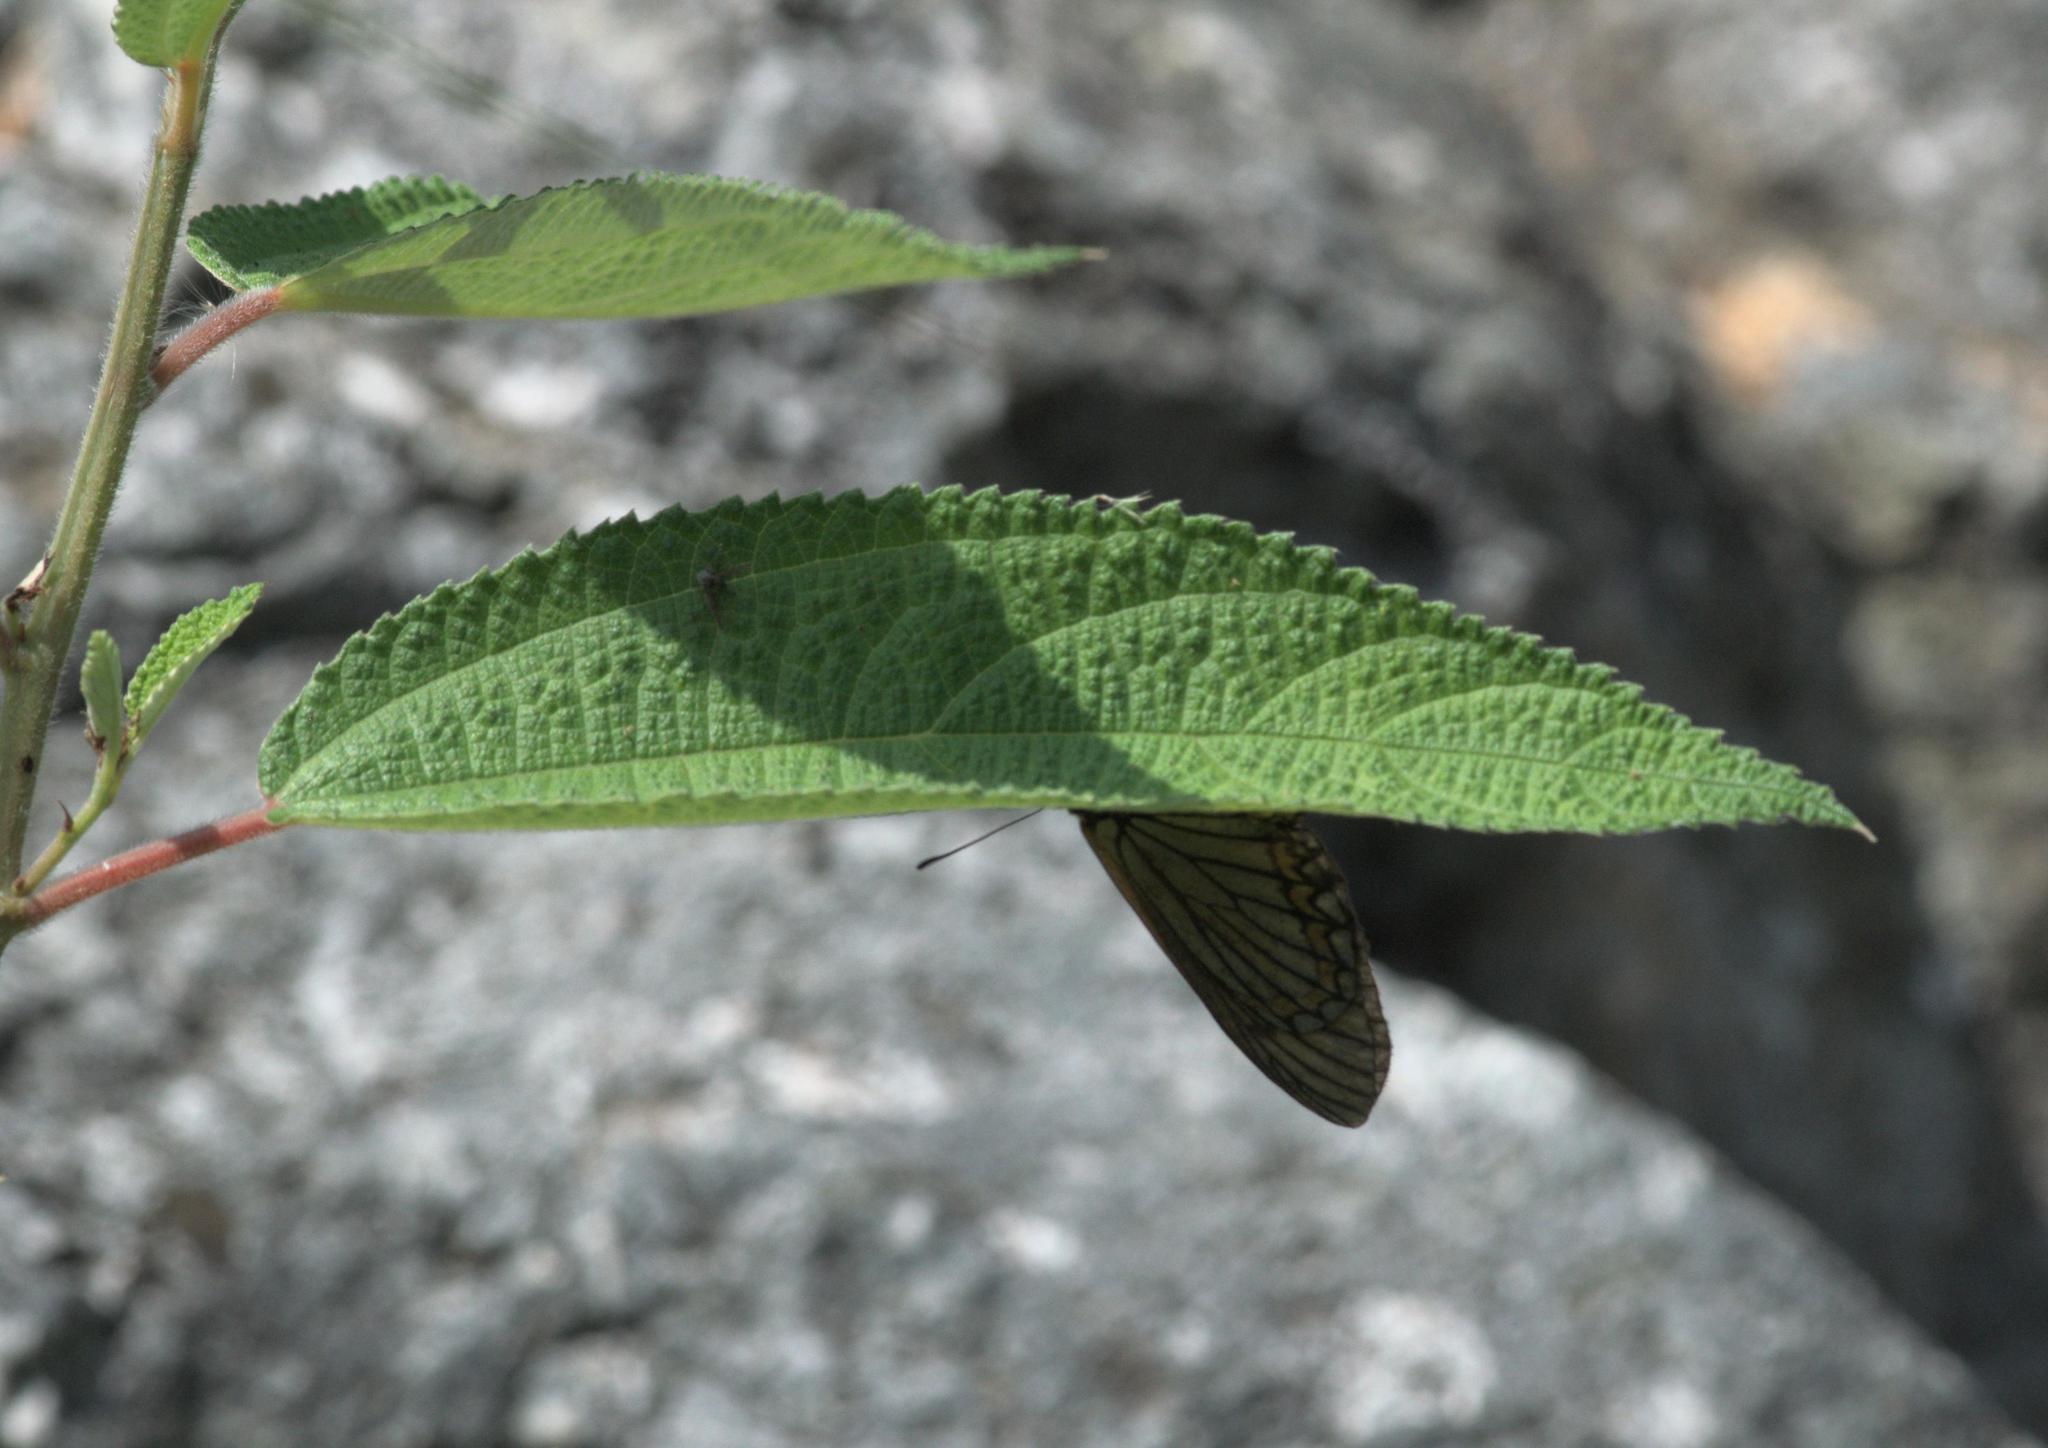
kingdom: Animalia
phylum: Arthropoda
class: Insecta
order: Lepidoptera
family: Nymphalidae
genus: Acraea
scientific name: Acraea Telchinia issoria
